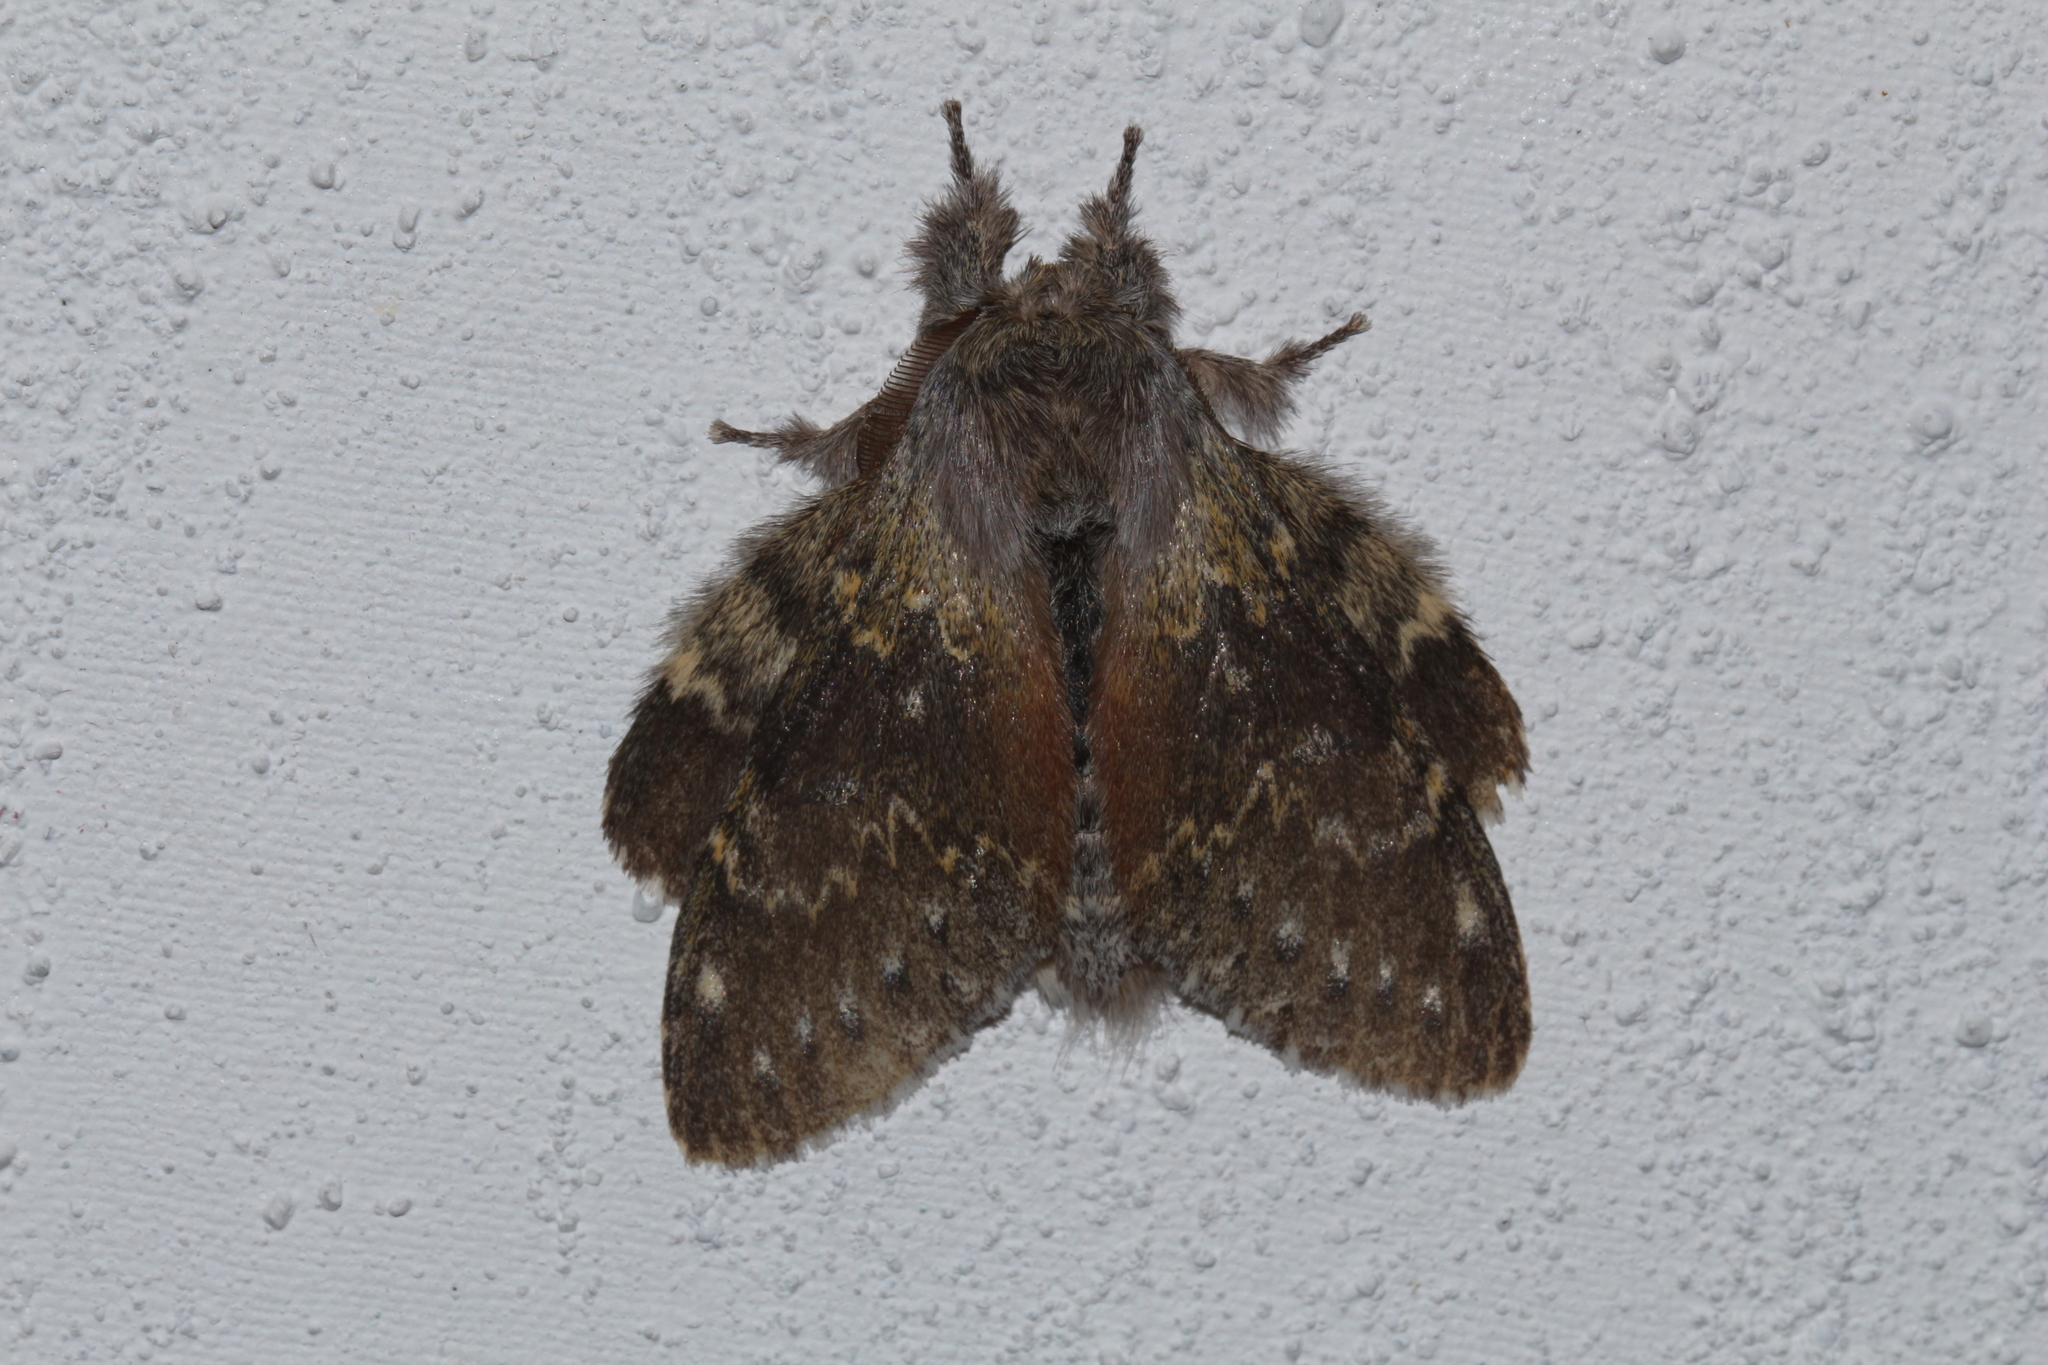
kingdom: Animalia
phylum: Arthropoda
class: Insecta
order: Lepidoptera
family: Notodontidae
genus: Stauropus
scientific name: Stauropus fagi
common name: Lobster moth
